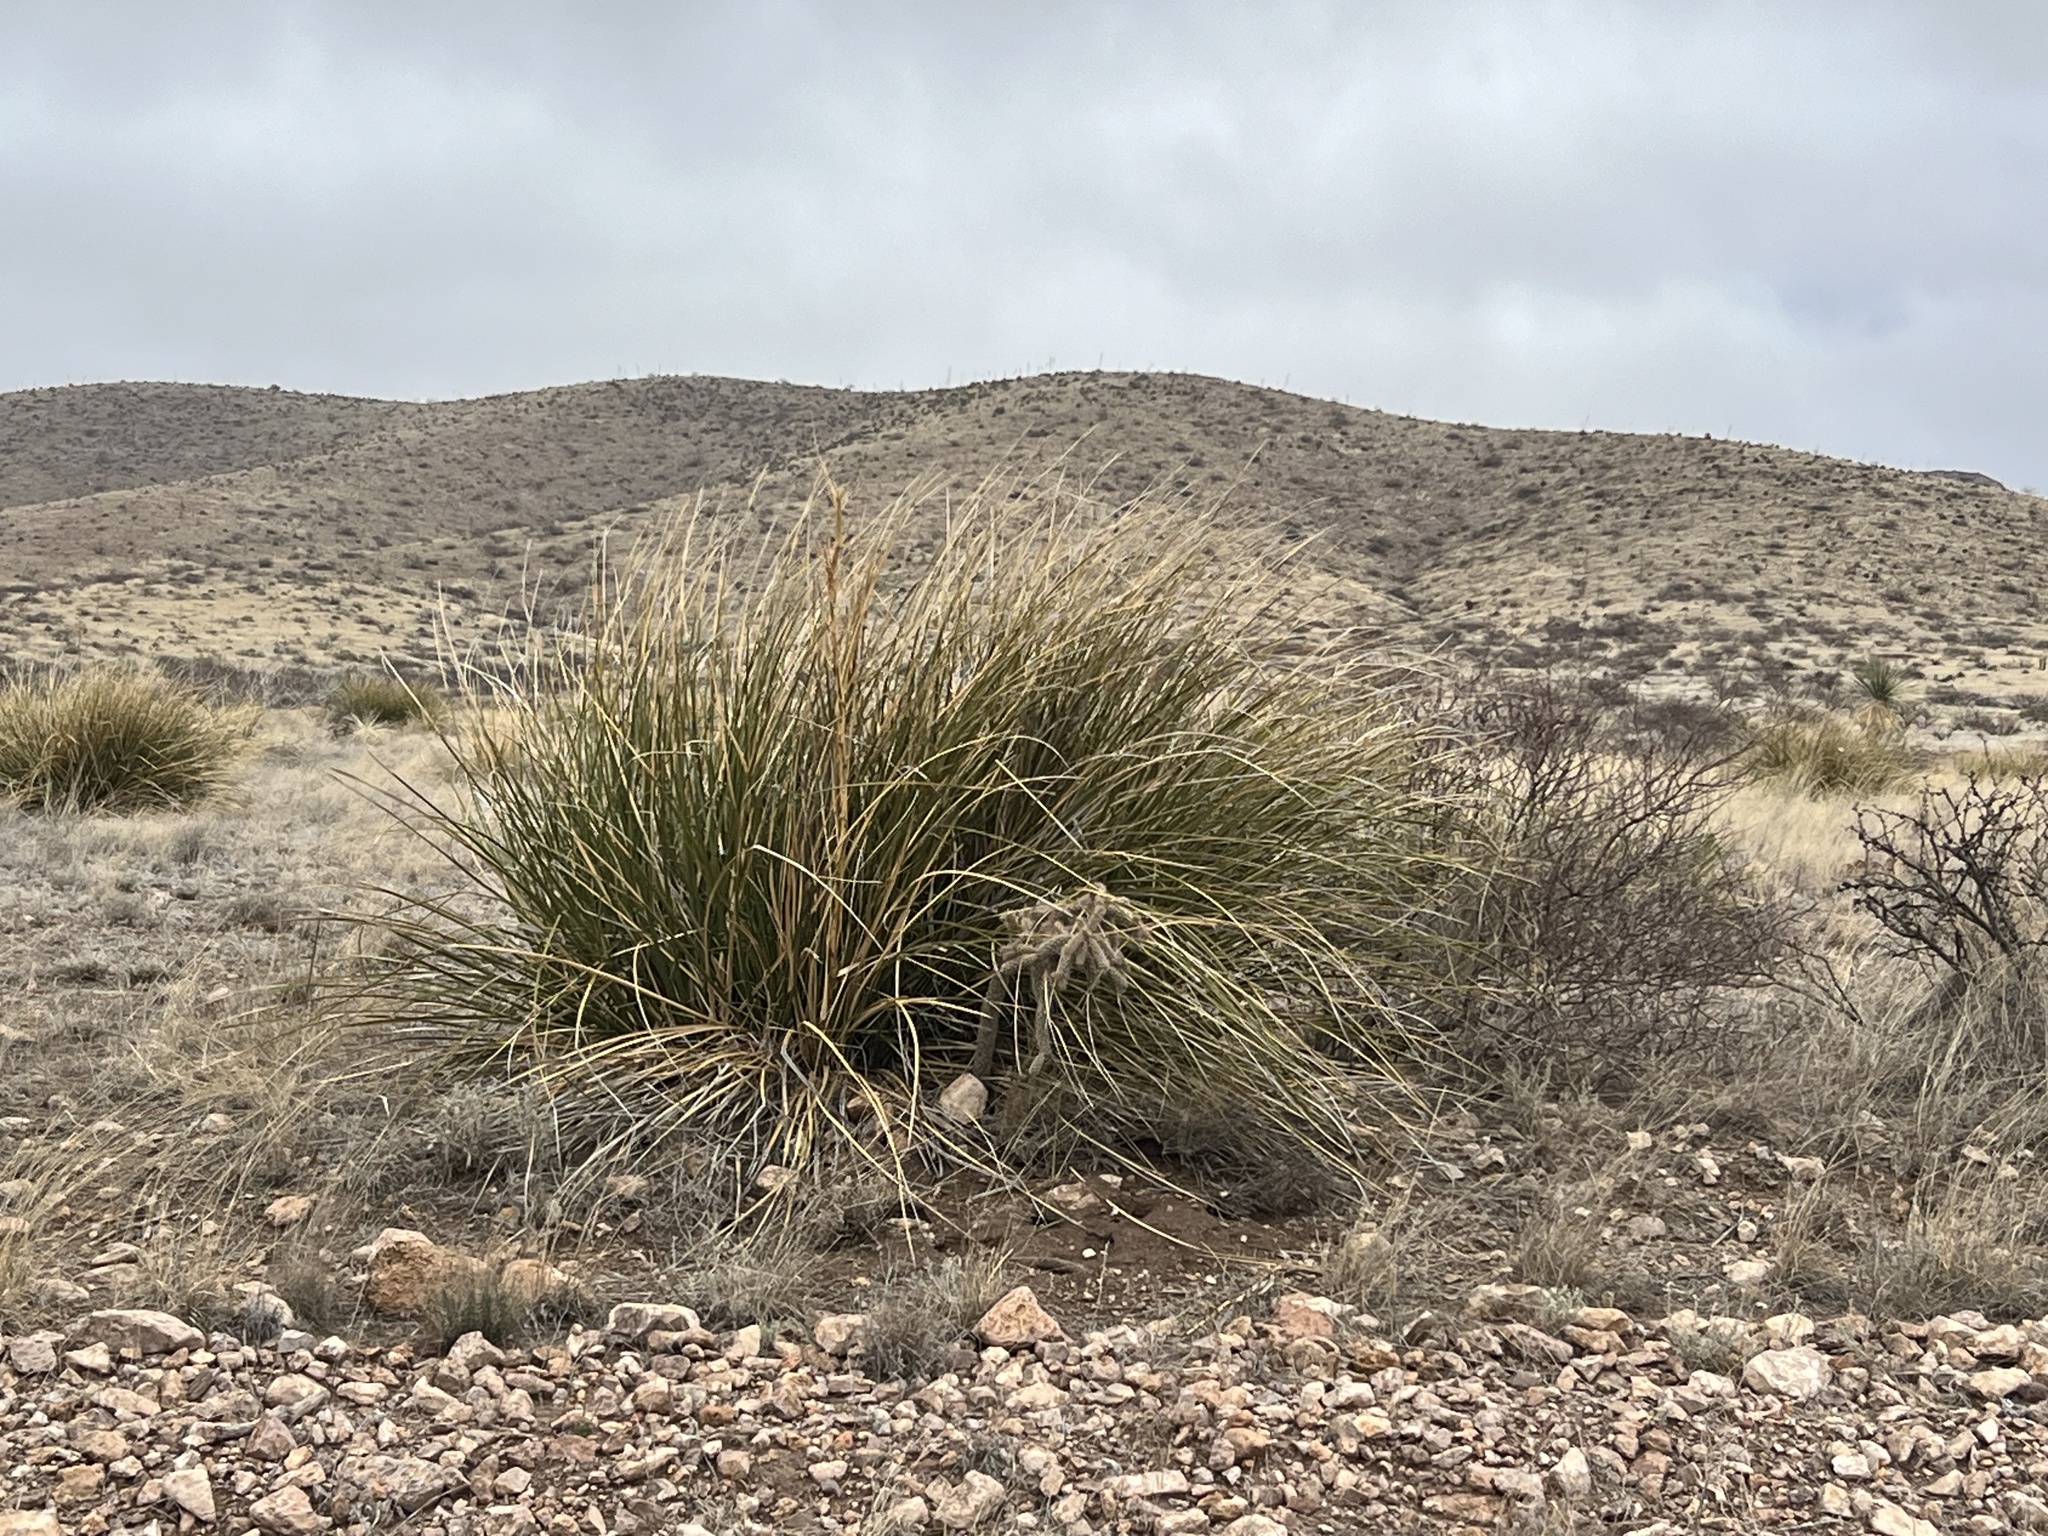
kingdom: Plantae
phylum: Tracheophyta
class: Liliopsida
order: Asparagales
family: Asparagaceae
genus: Nolina
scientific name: Nolina microcarpa
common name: Bear-grass
